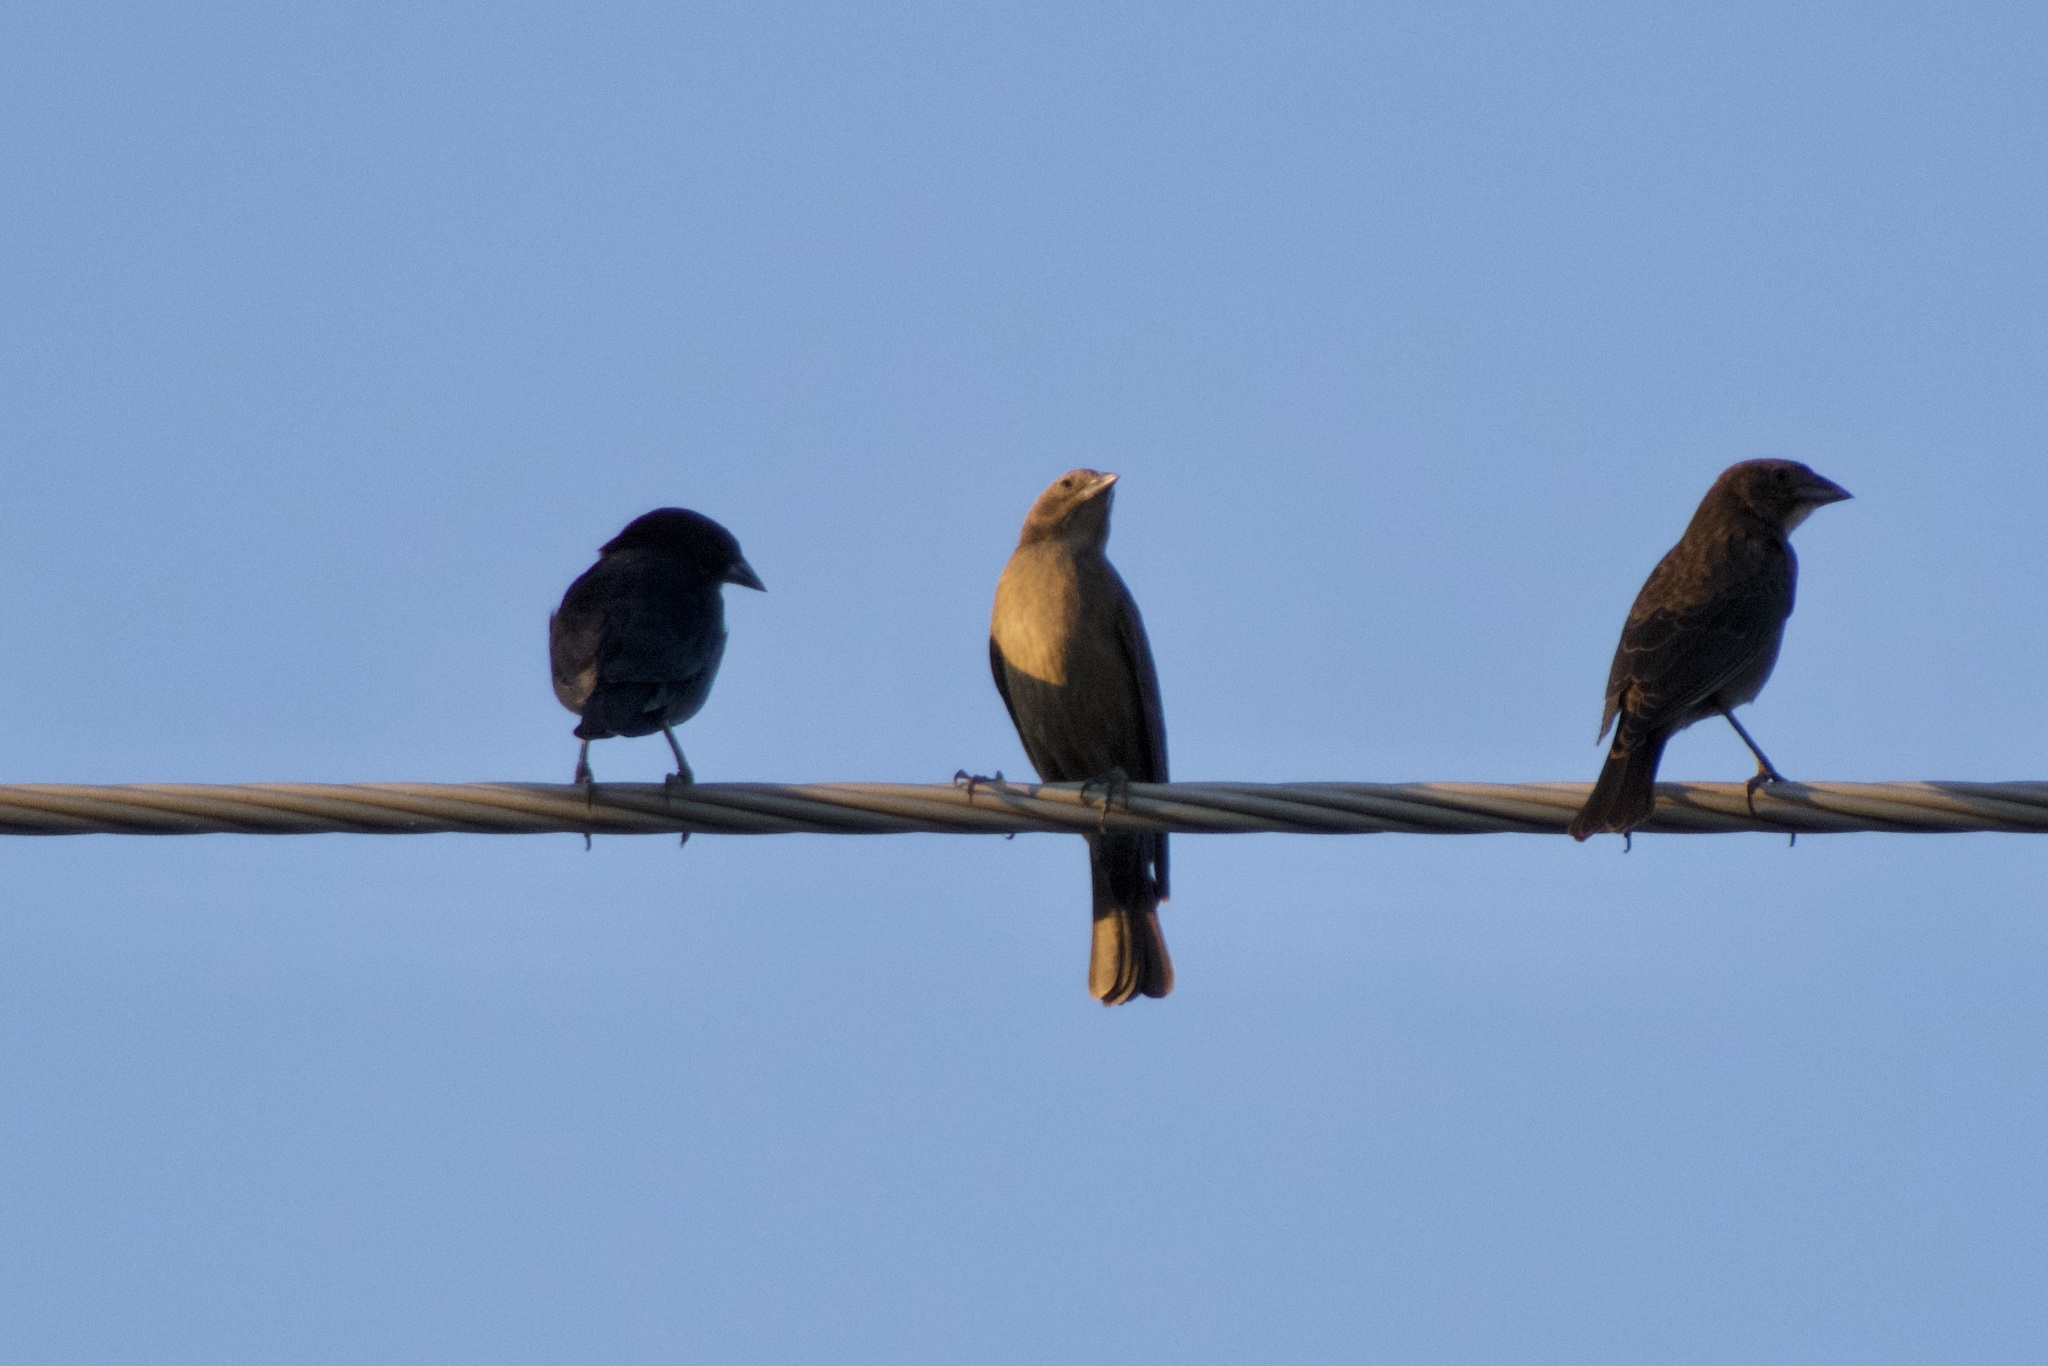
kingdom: Animalia
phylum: Chordata
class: Aves
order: Passeriformes
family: Icteridae
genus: Molothrus
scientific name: Molothrus ater
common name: Brown-headed cowbird
